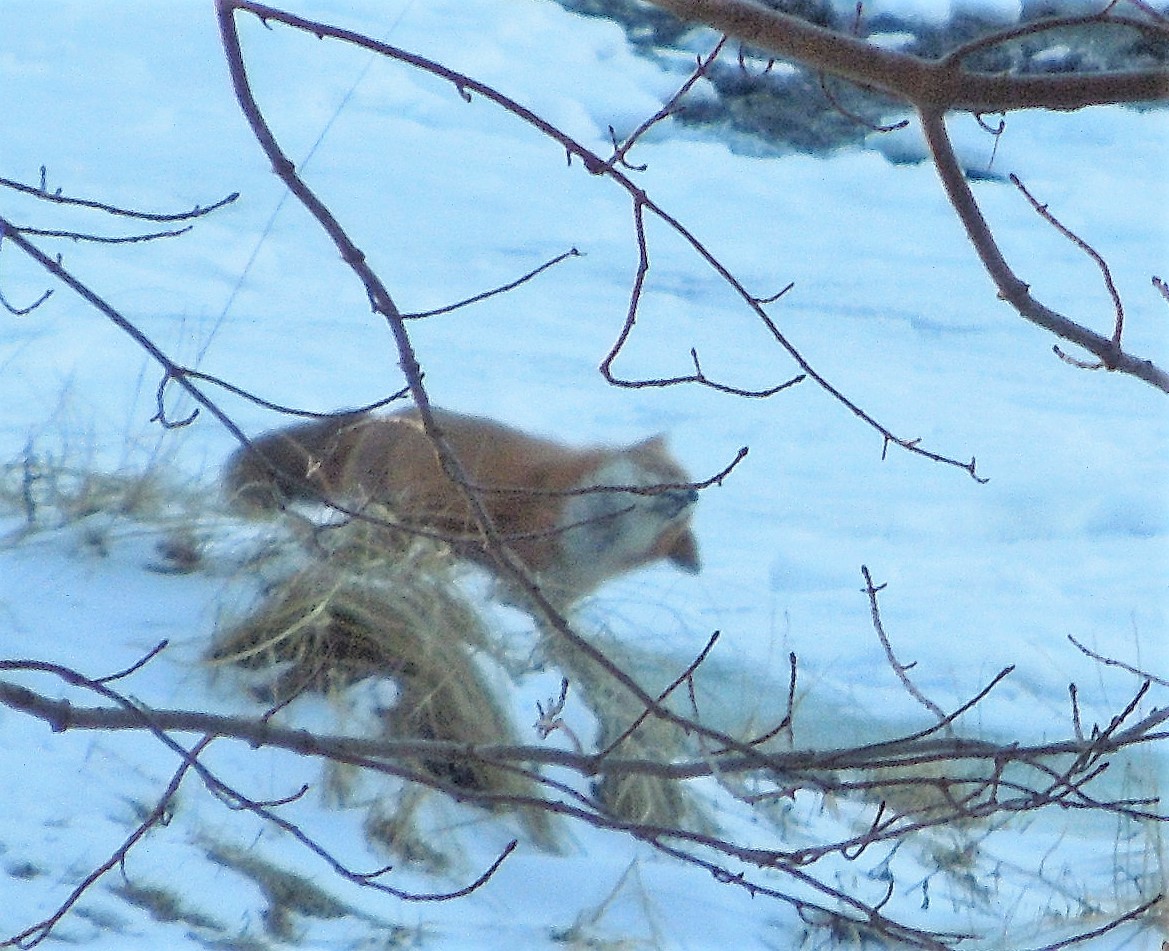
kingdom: Animalia
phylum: Chordata
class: Mammalia
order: Carnivora
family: Canidae
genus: Vulpes
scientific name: Vulpes vulpes
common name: Red fox
